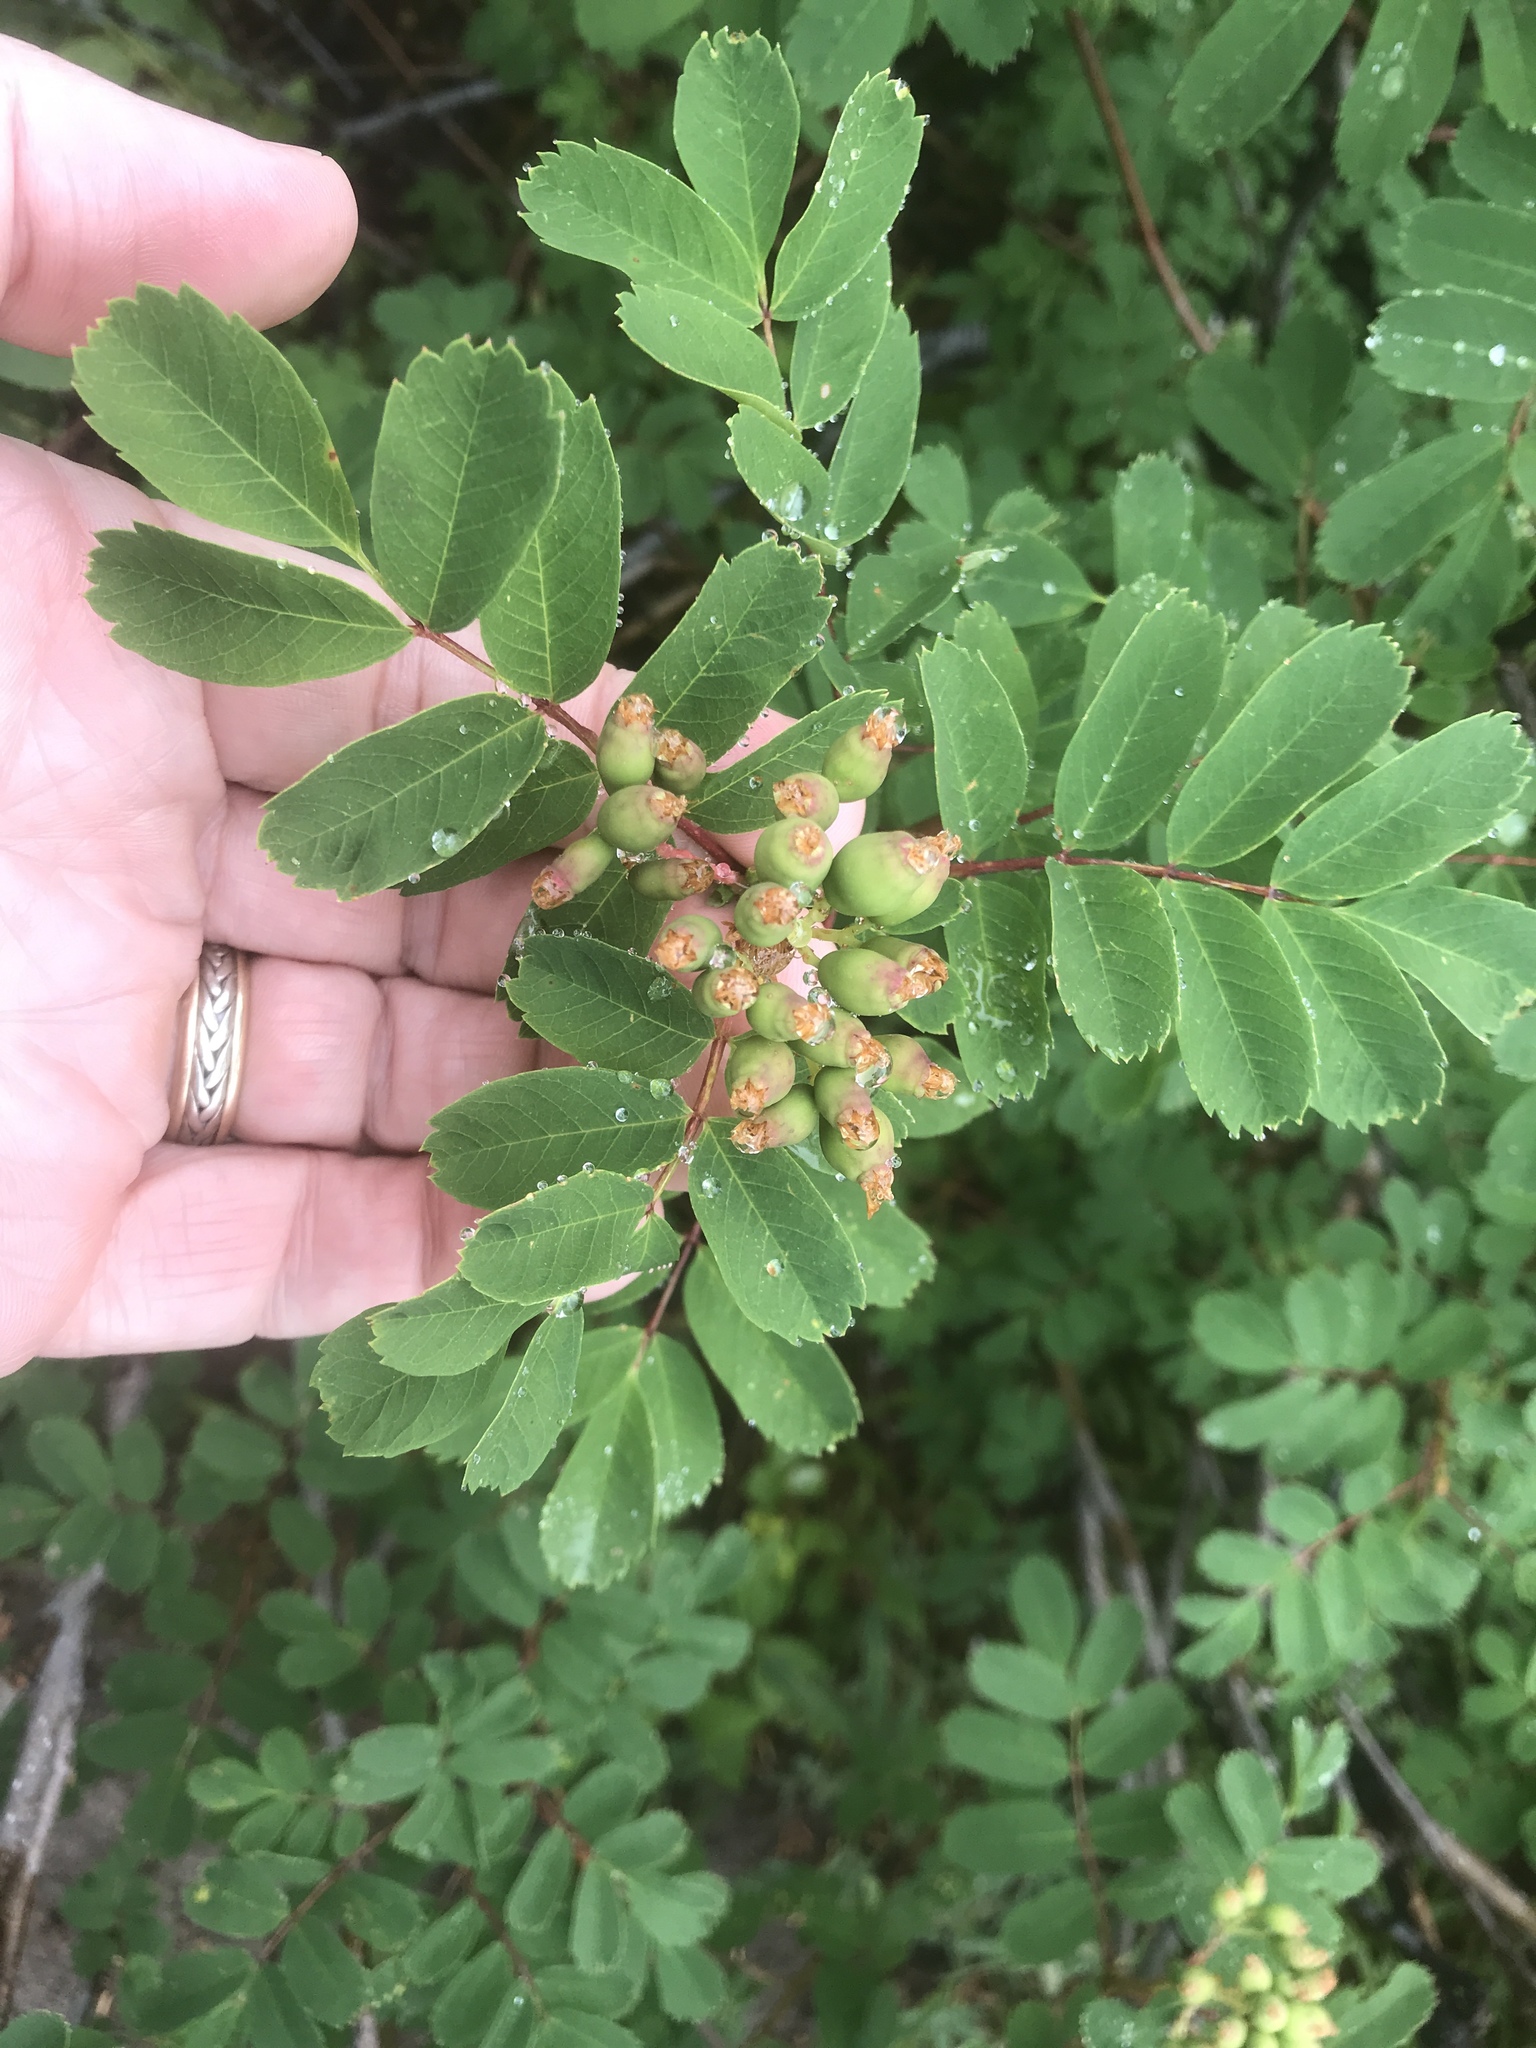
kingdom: Plantae
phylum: Tracheophyta
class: Magnoliopsida
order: Rosales
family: Rosaceae
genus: Sorbus
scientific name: Sorbus sitchensis
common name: Sitka mountain-ash
